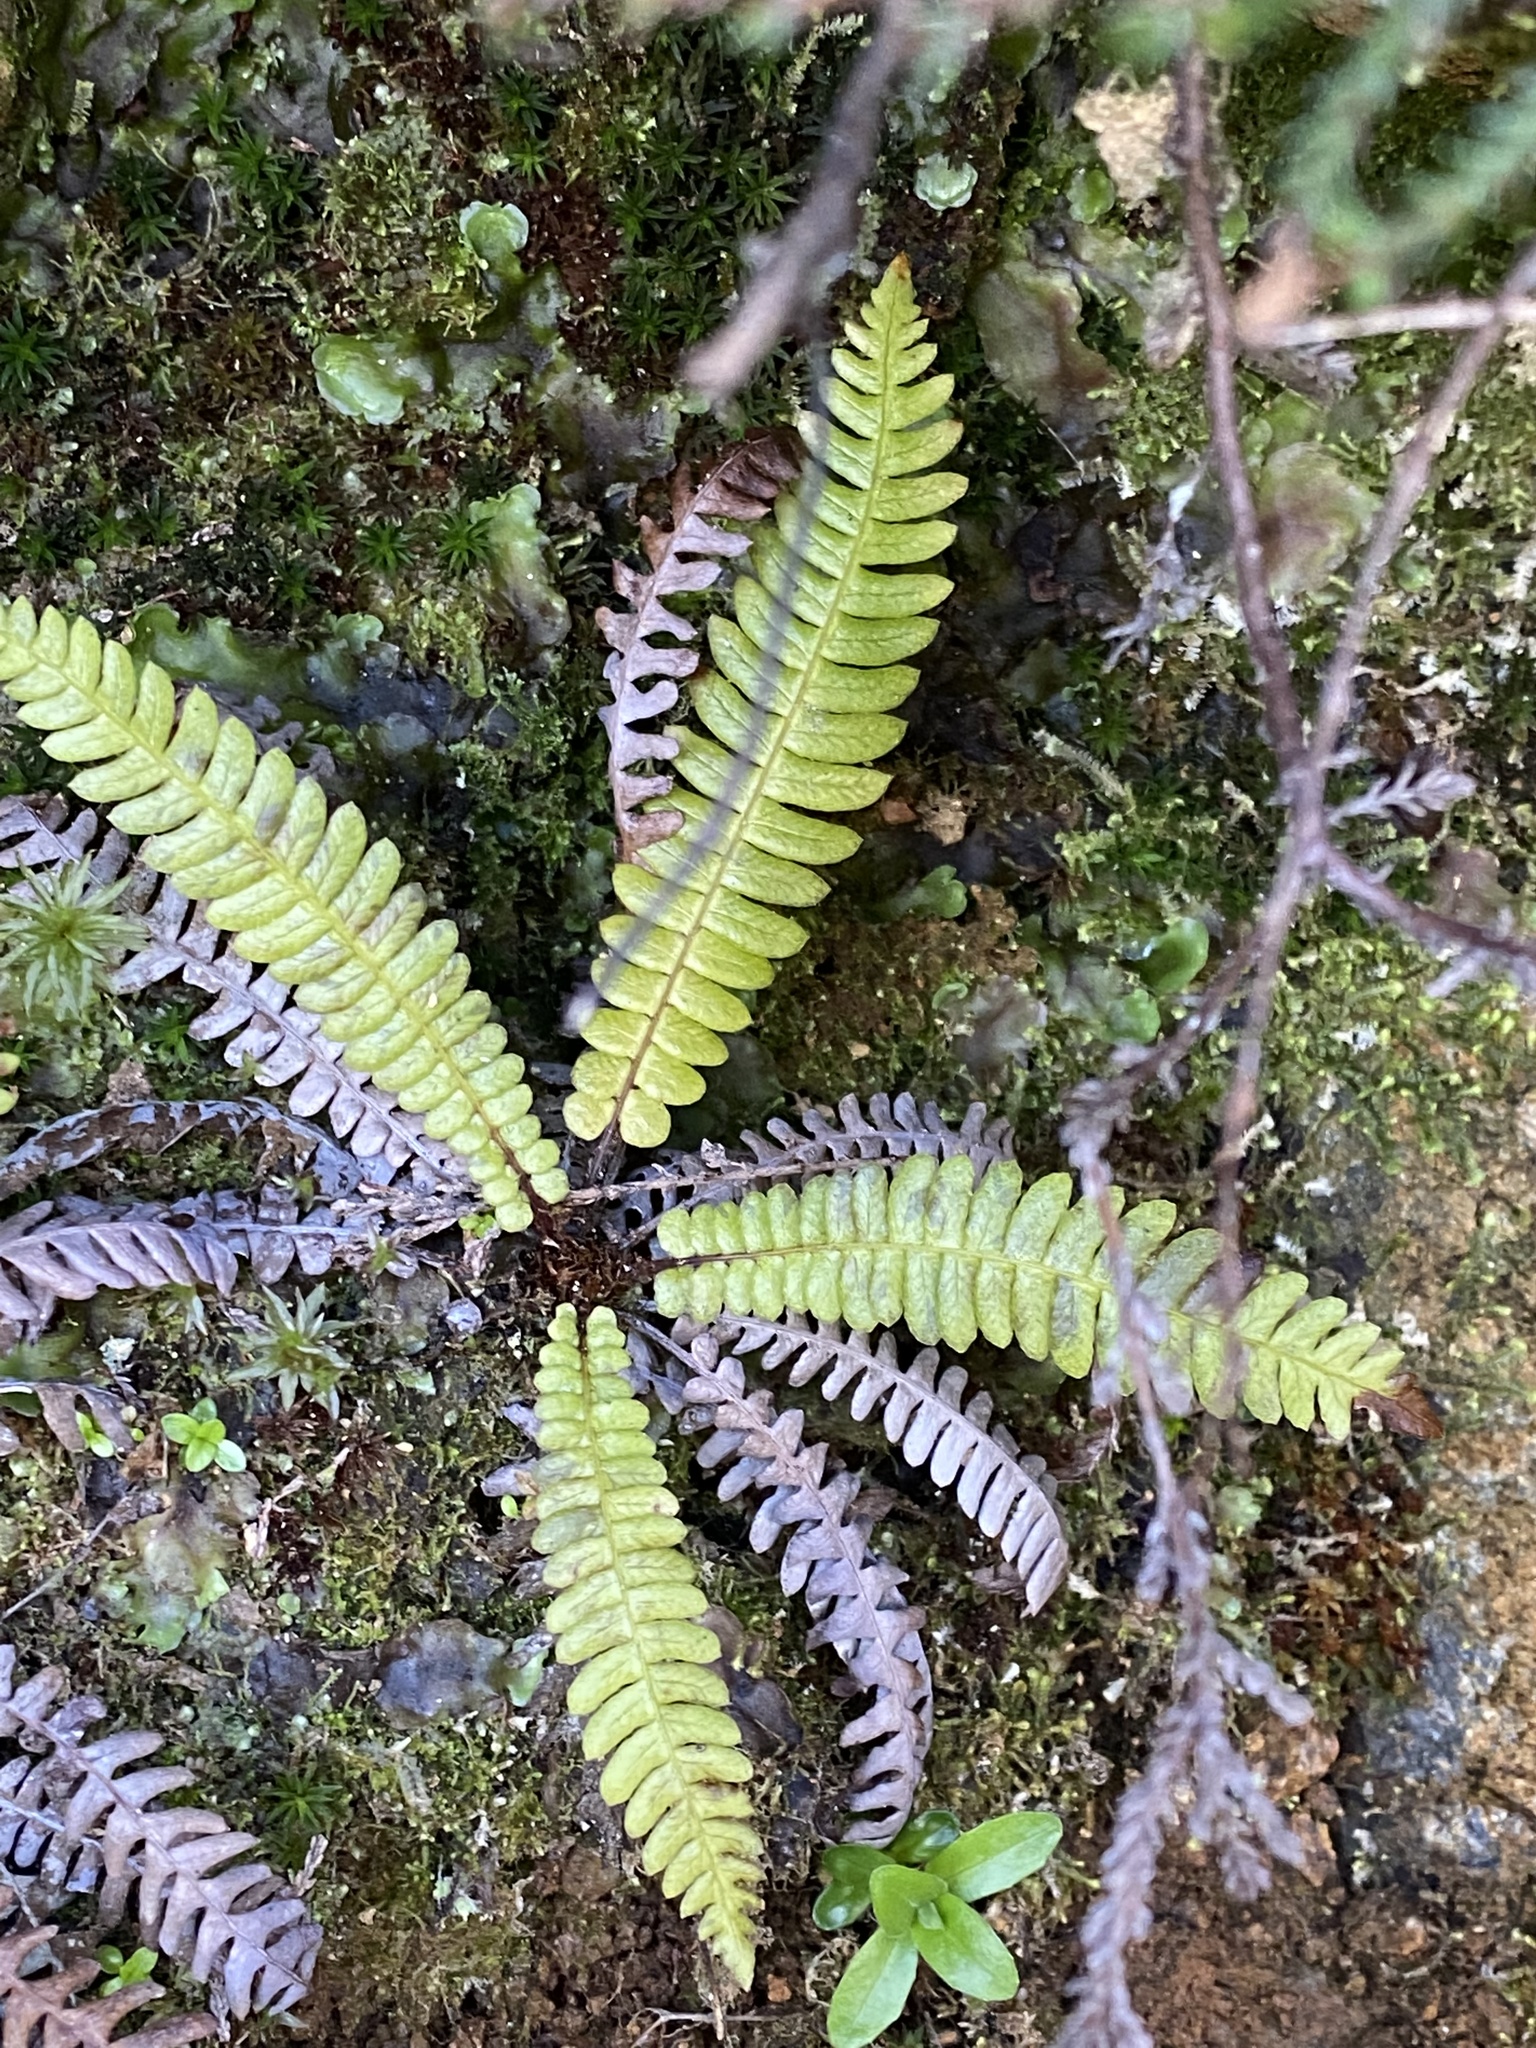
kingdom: Plantae
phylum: Tracheophyta
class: Polypodiopsida
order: Polypodiales
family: Blechnaceae
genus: Struthiopteris
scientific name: Struthiopteris spicant
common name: Deer fern
